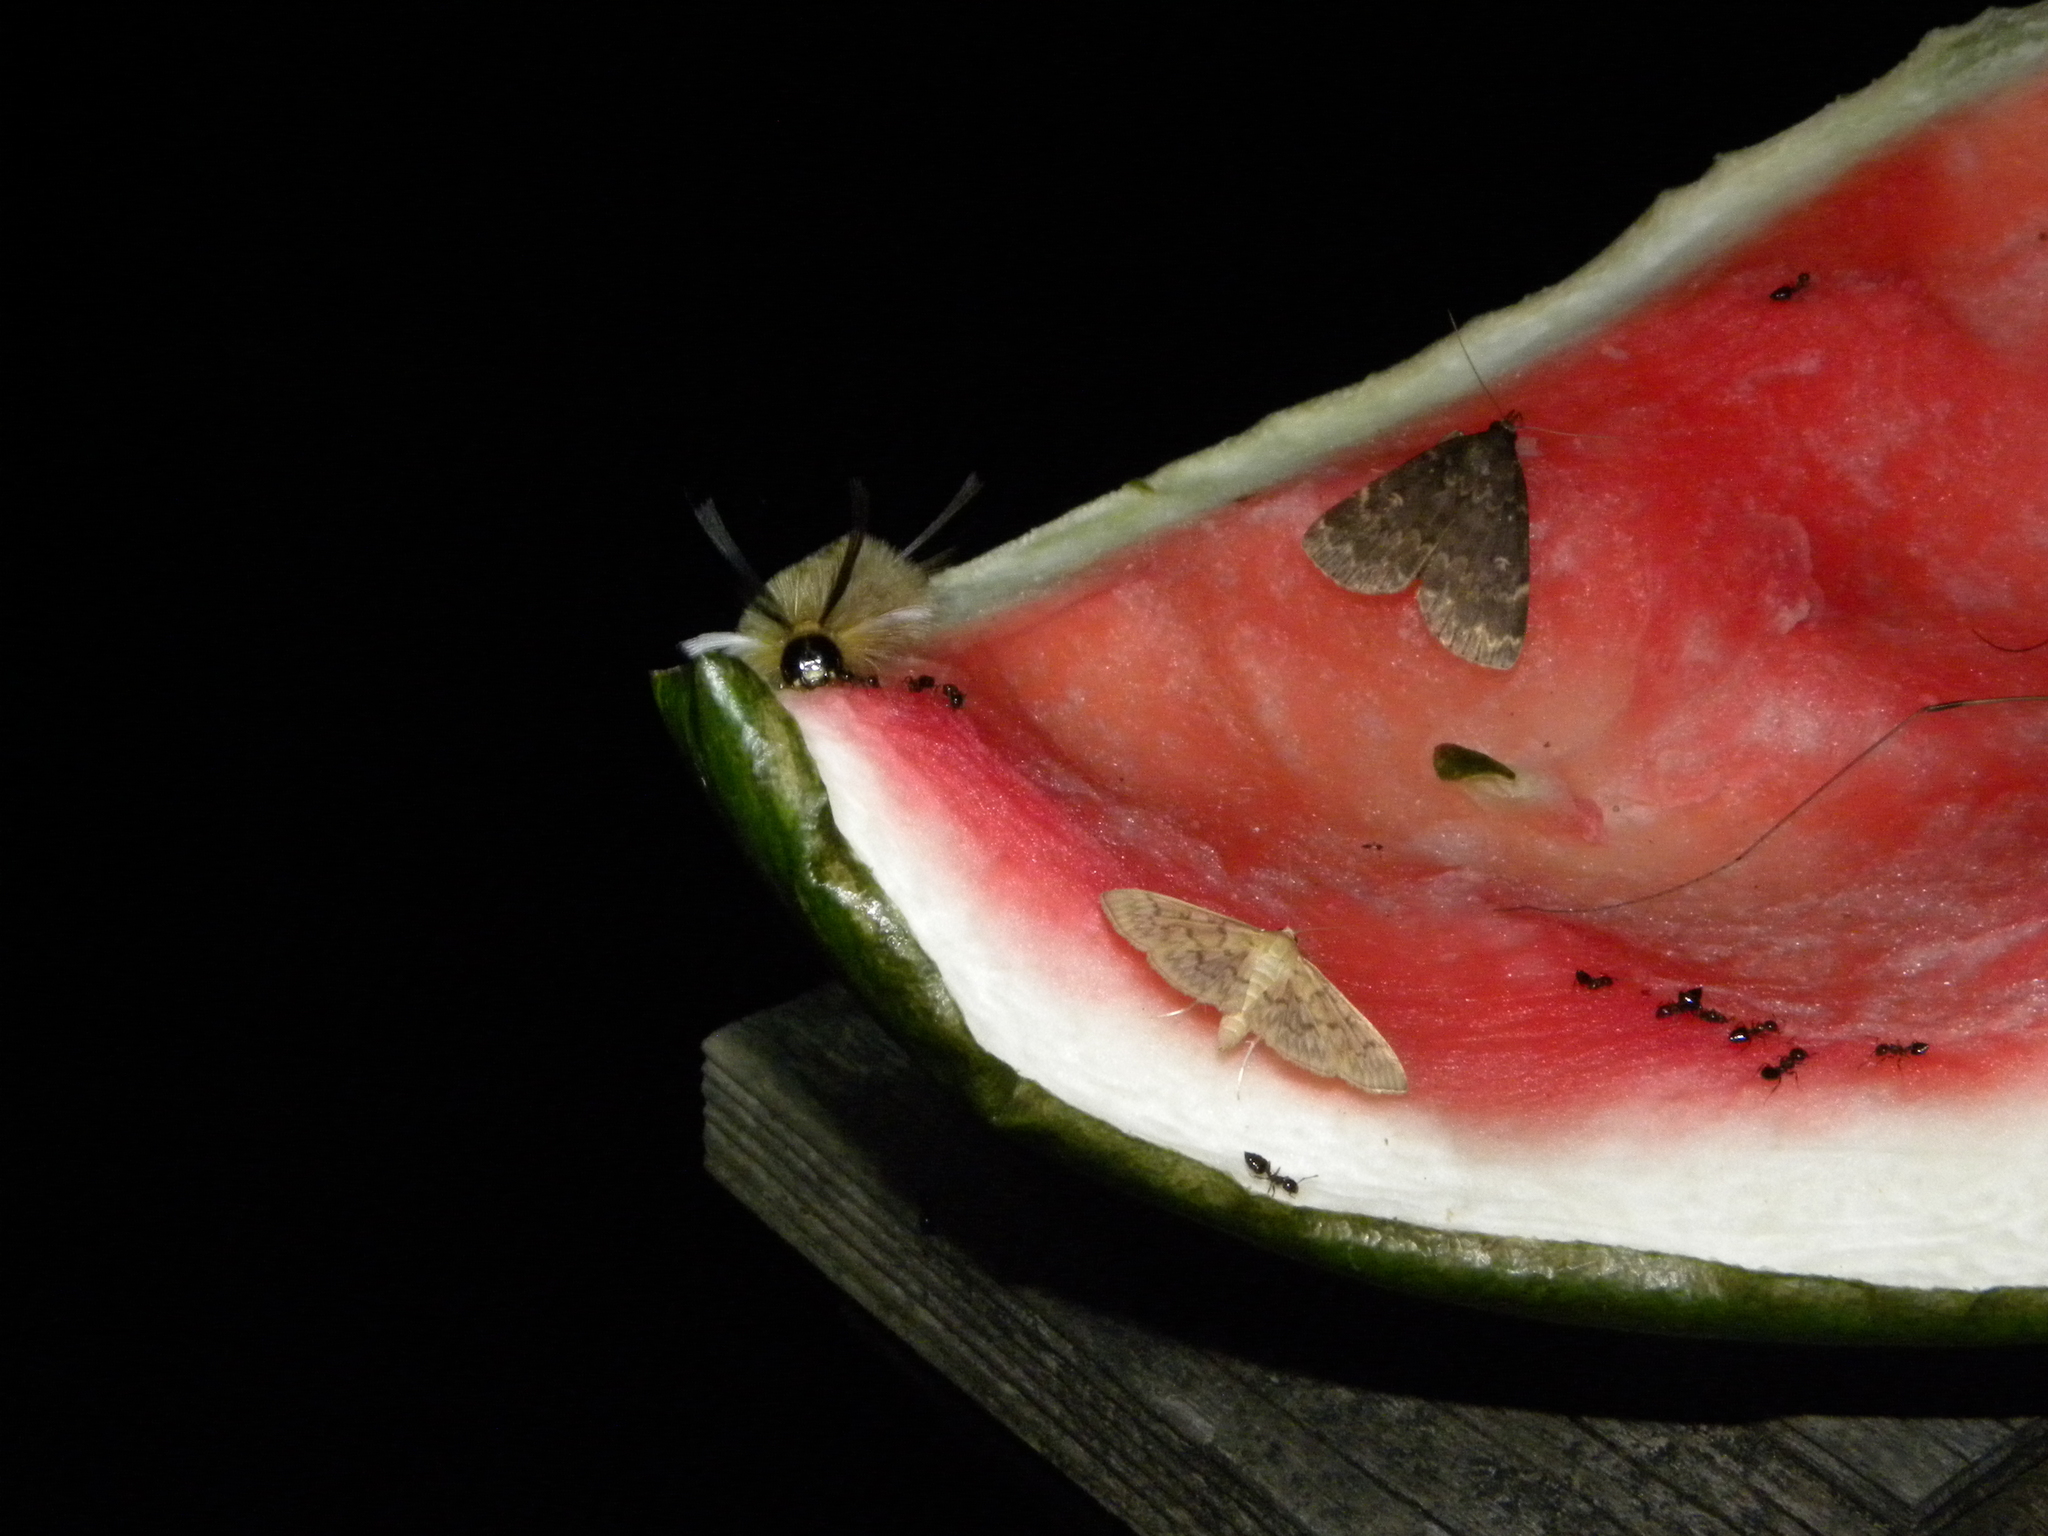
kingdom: Animalia
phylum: Arthropoda
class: Insecta
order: Lepidoptera
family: Erebidae
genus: Halysidota
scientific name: Halysidota tessellaris
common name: Banded tussock moth
